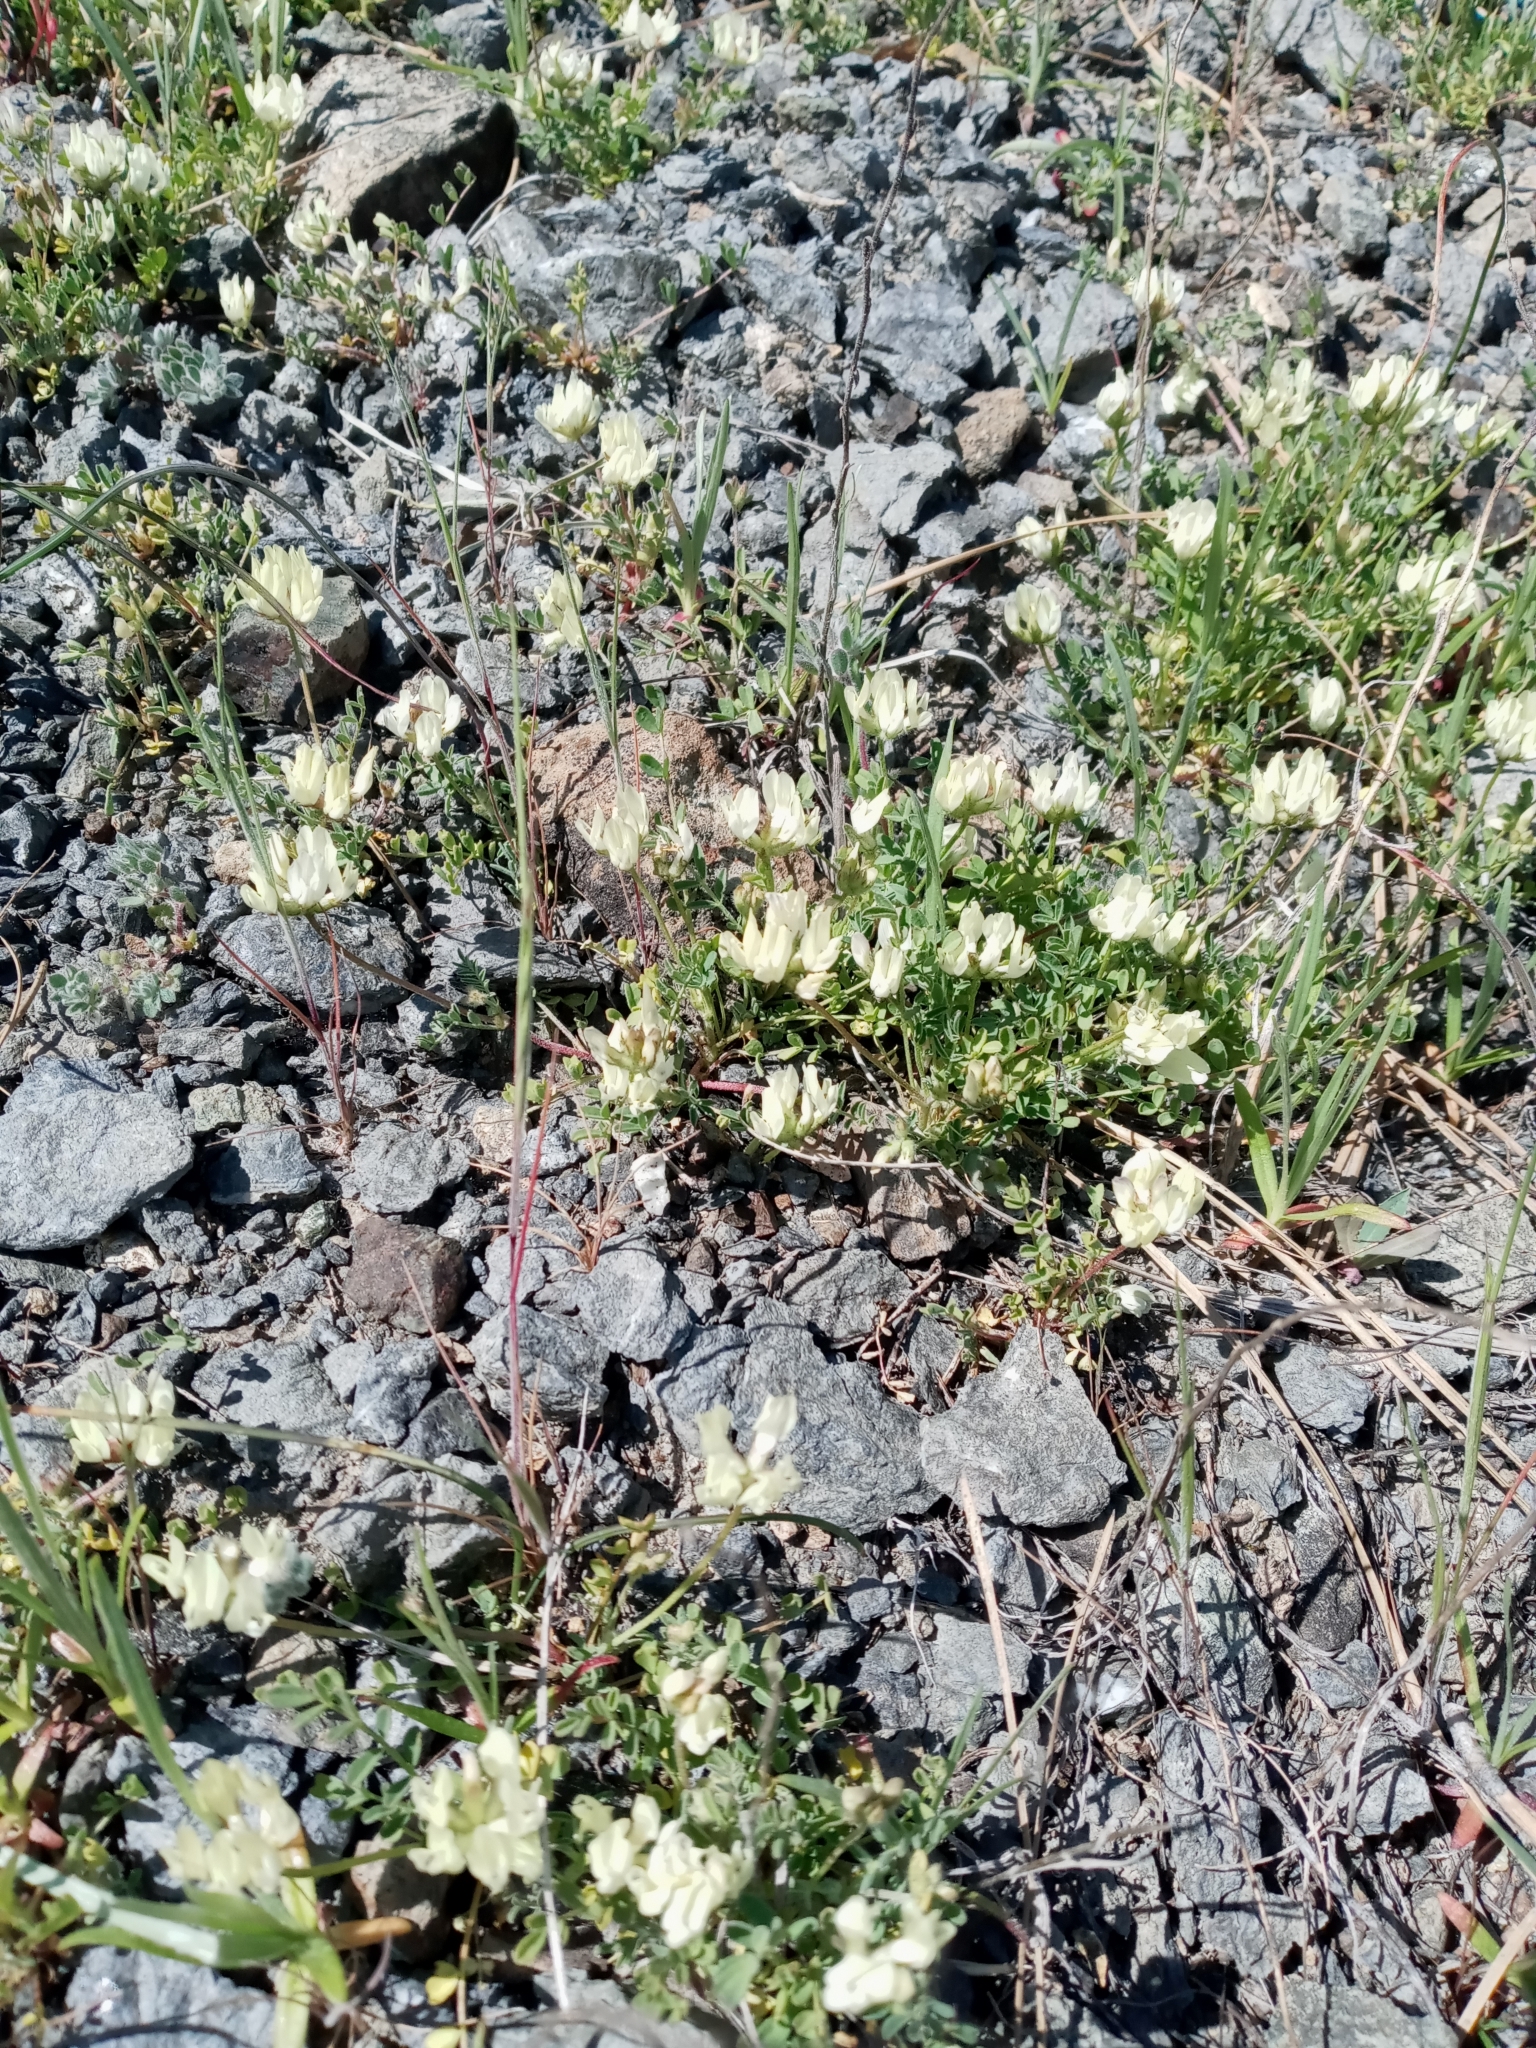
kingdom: Plantae
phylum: Tracheophyta
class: Magnoliopsida
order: Fabales
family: Fabaceae
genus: Astragalus
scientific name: Astragalus breweri
